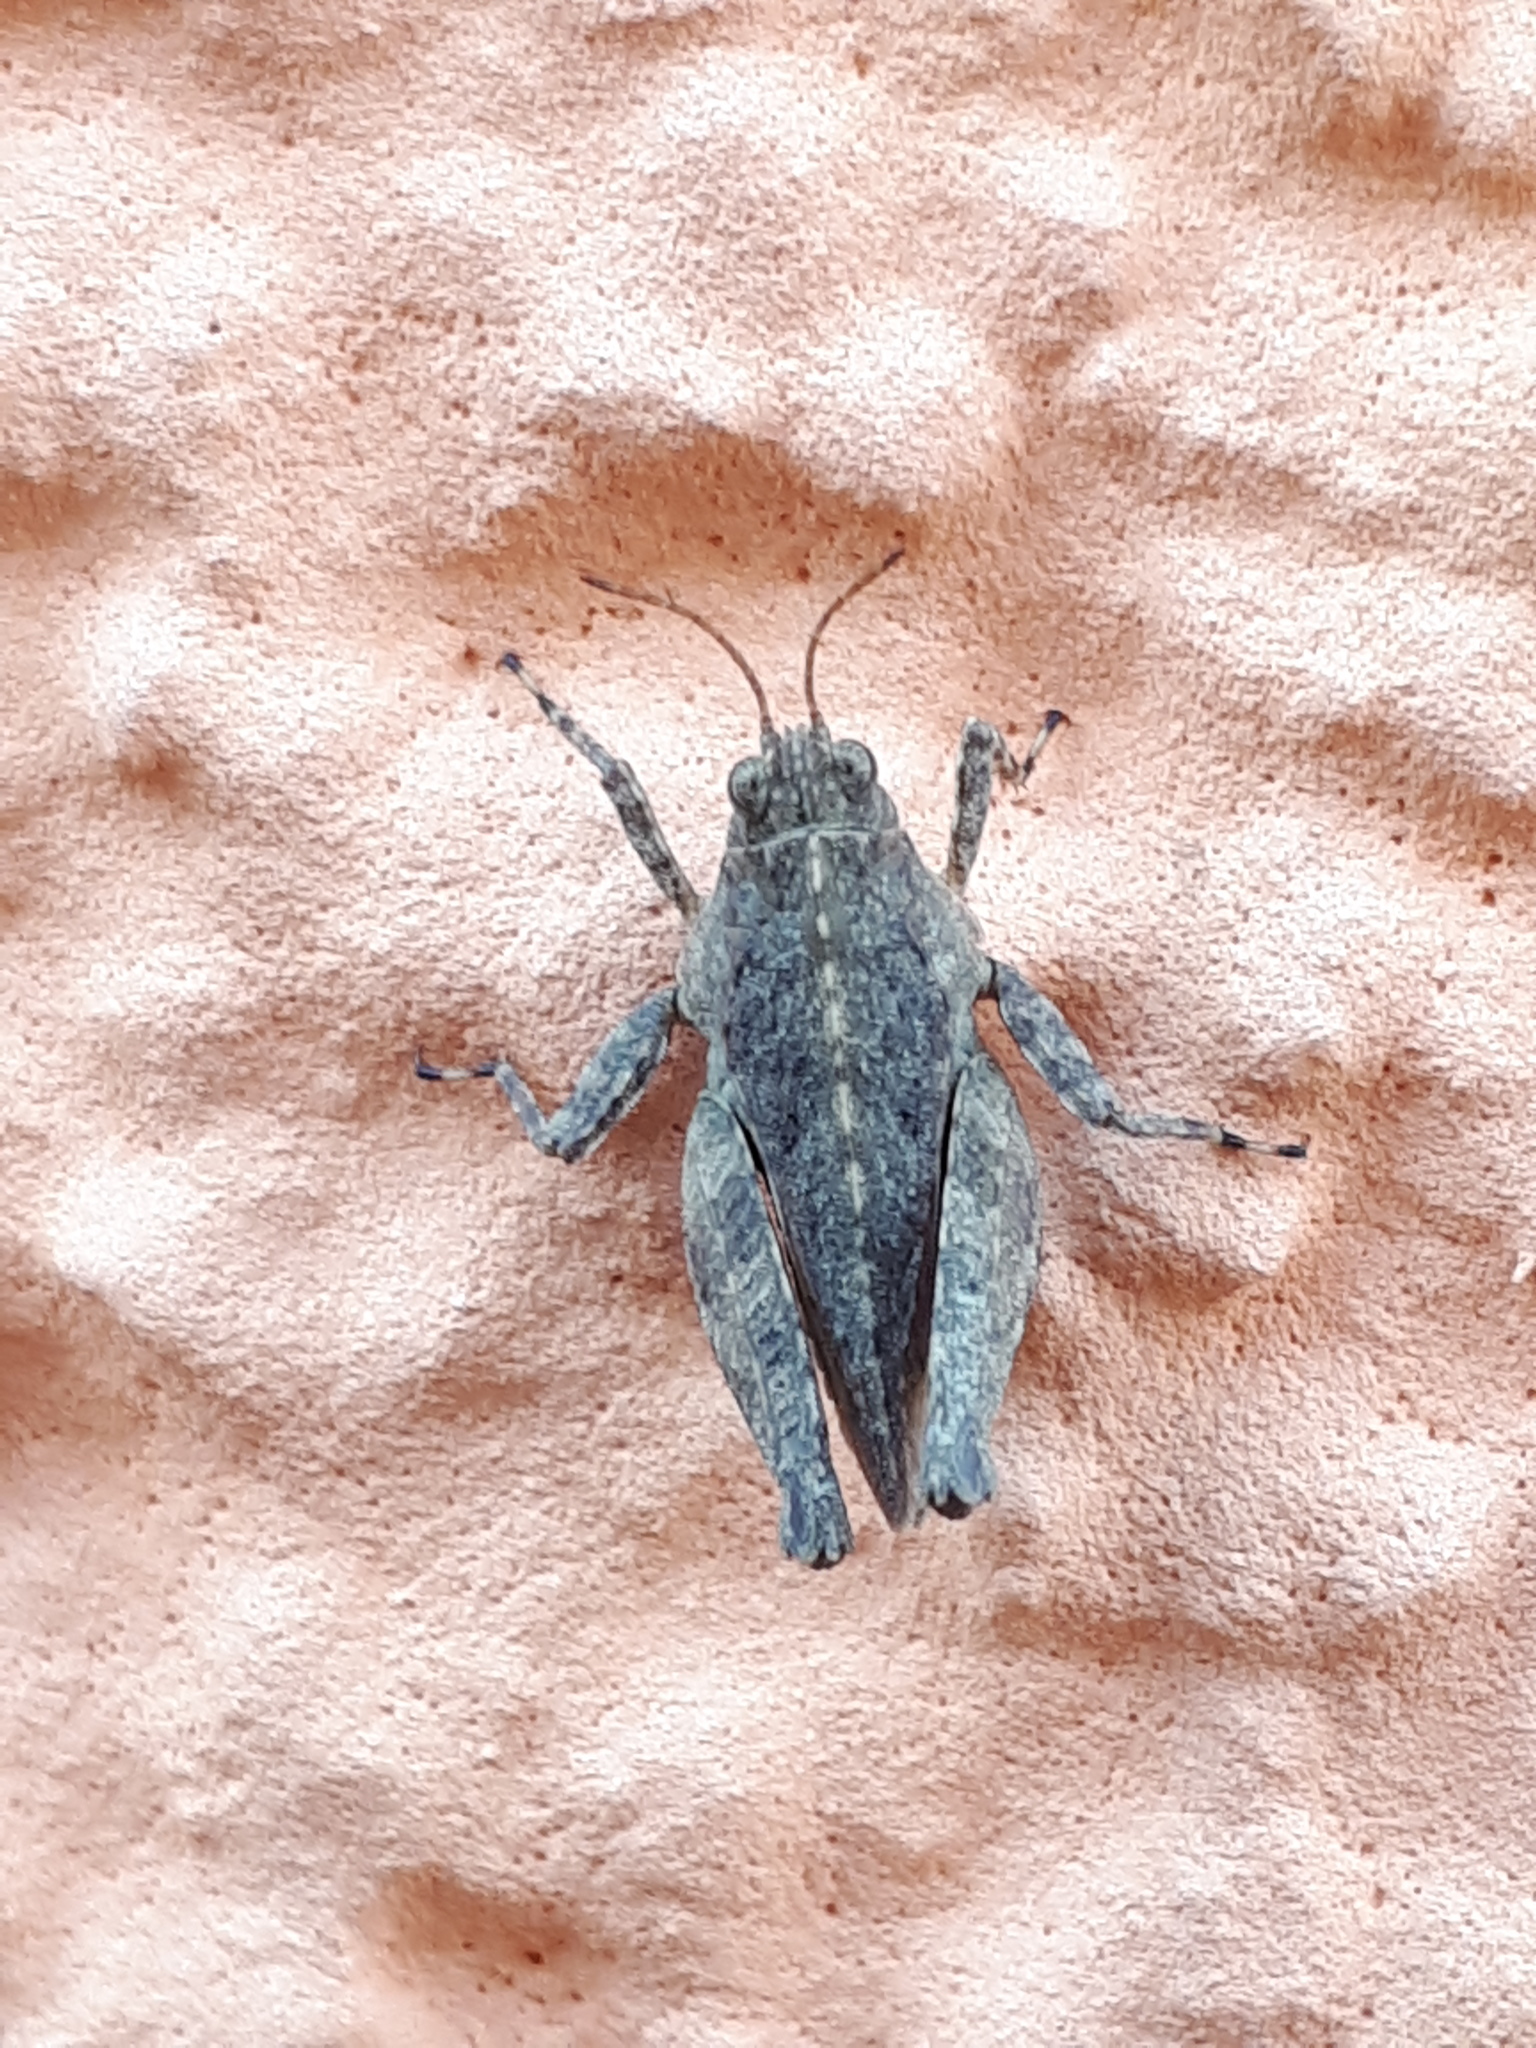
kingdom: Animalia
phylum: Arthropoda
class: Insecta
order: Orthoptera
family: Tetrigidae
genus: Tetrix
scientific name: Tetrix tenuicornis
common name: Long-horned groundhopper
